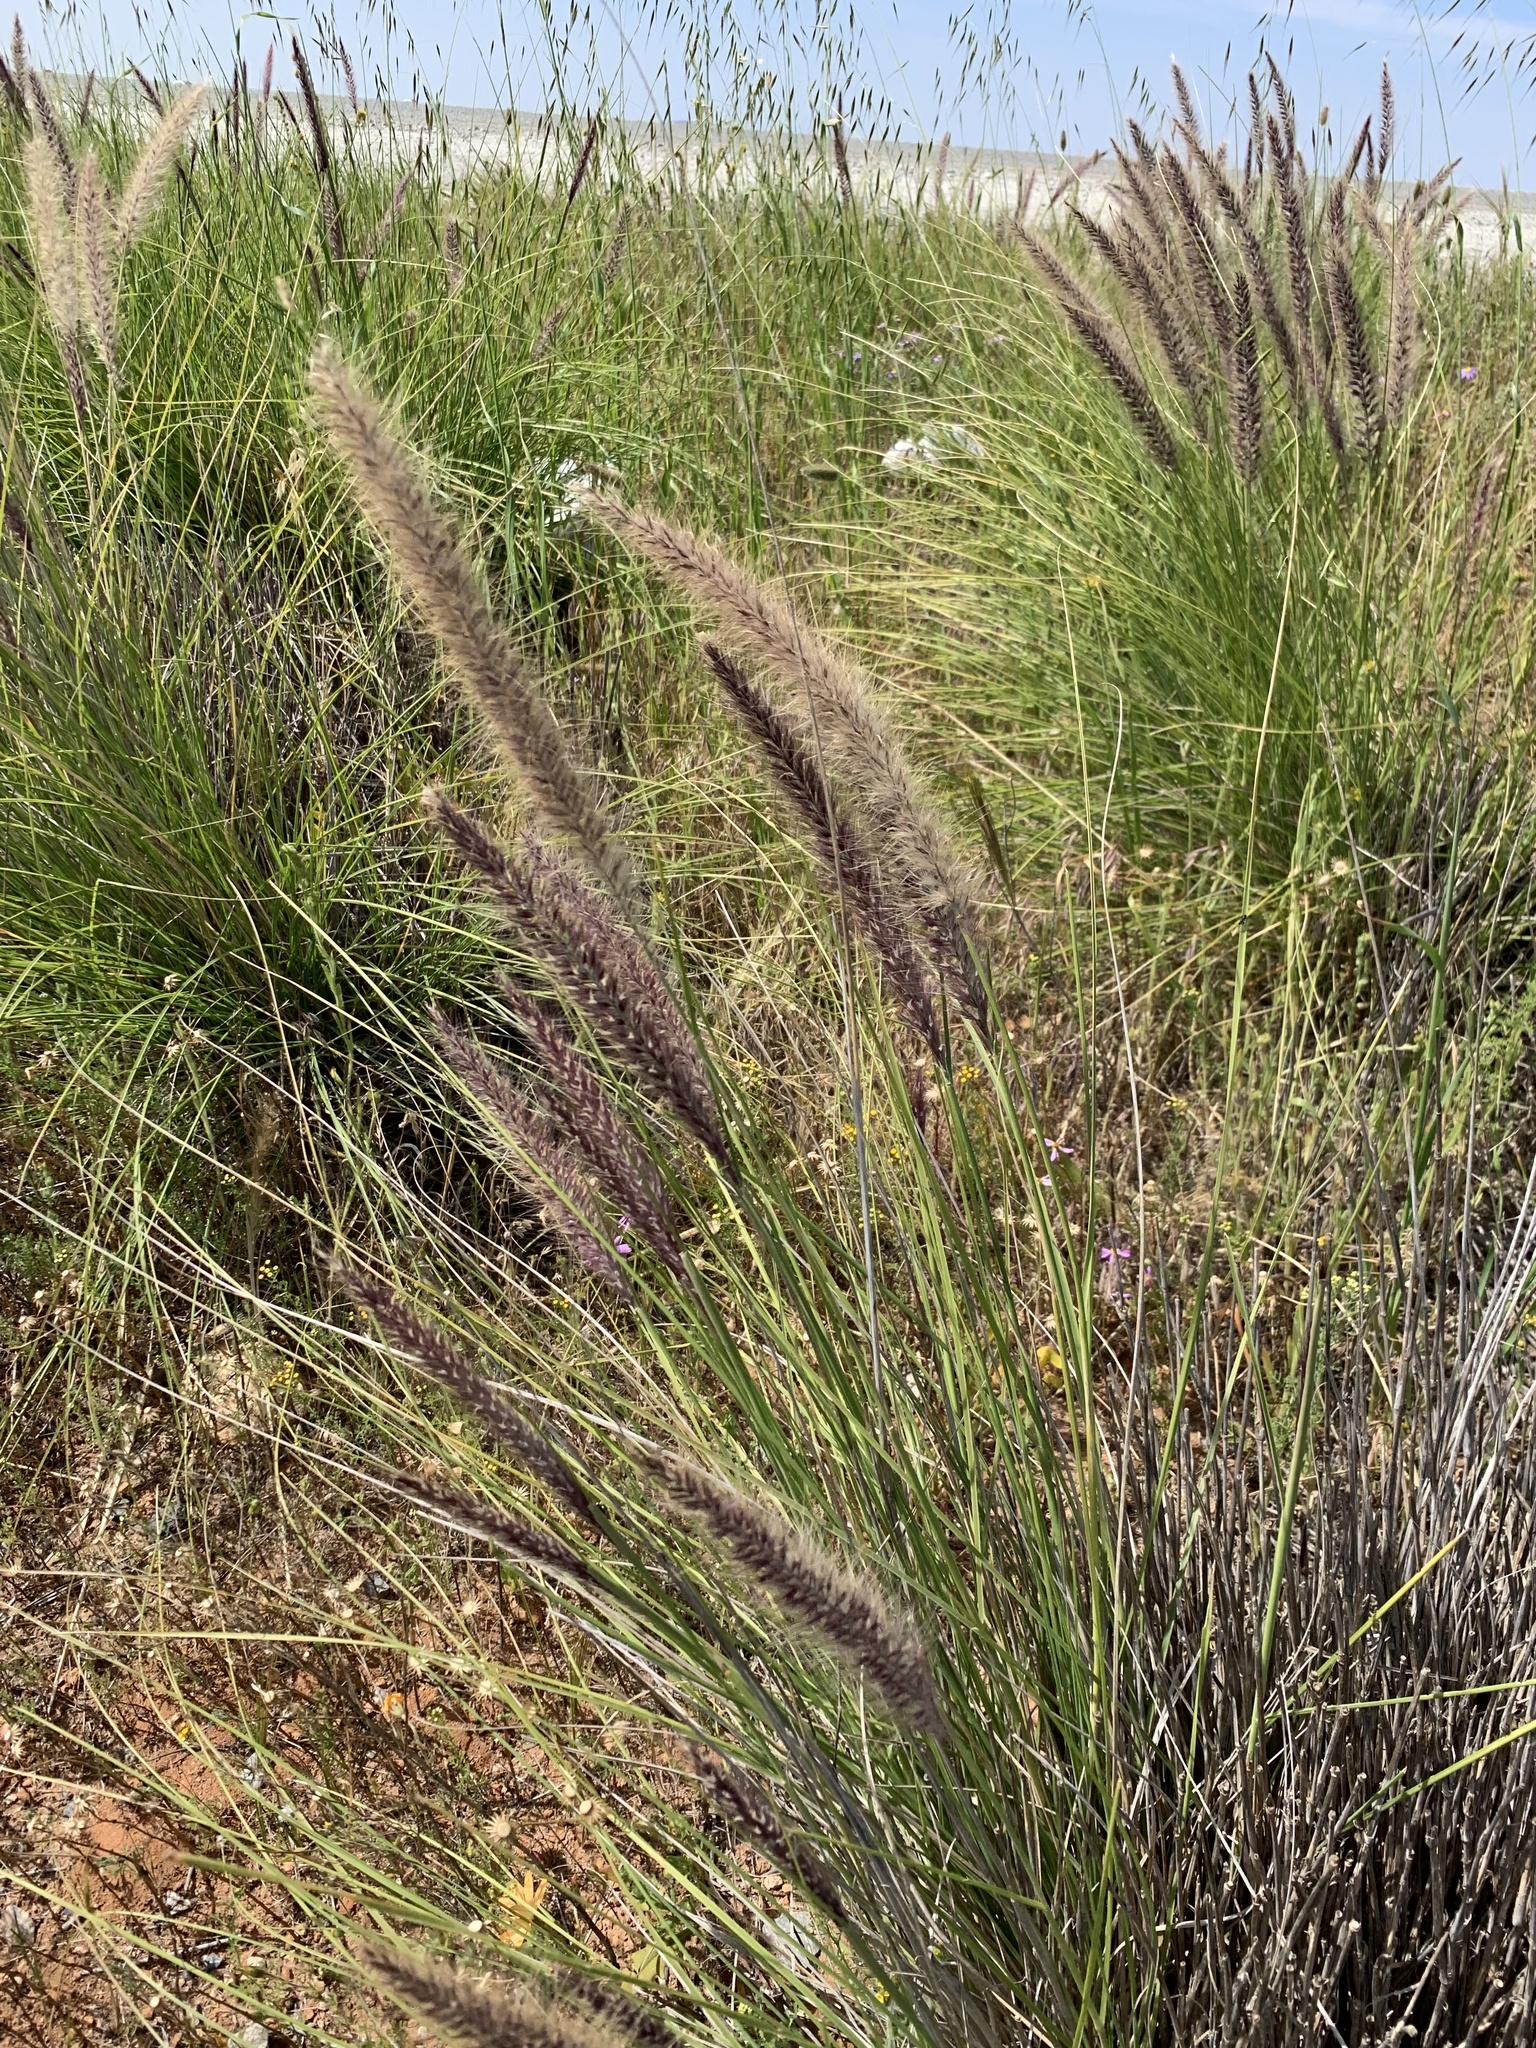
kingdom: Plantae
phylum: Tracheophyta
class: Liliopsida
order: Poales
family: Poaceae
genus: Cenchrus
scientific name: Cenchrus setaceus
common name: Crimson fountaingrass
